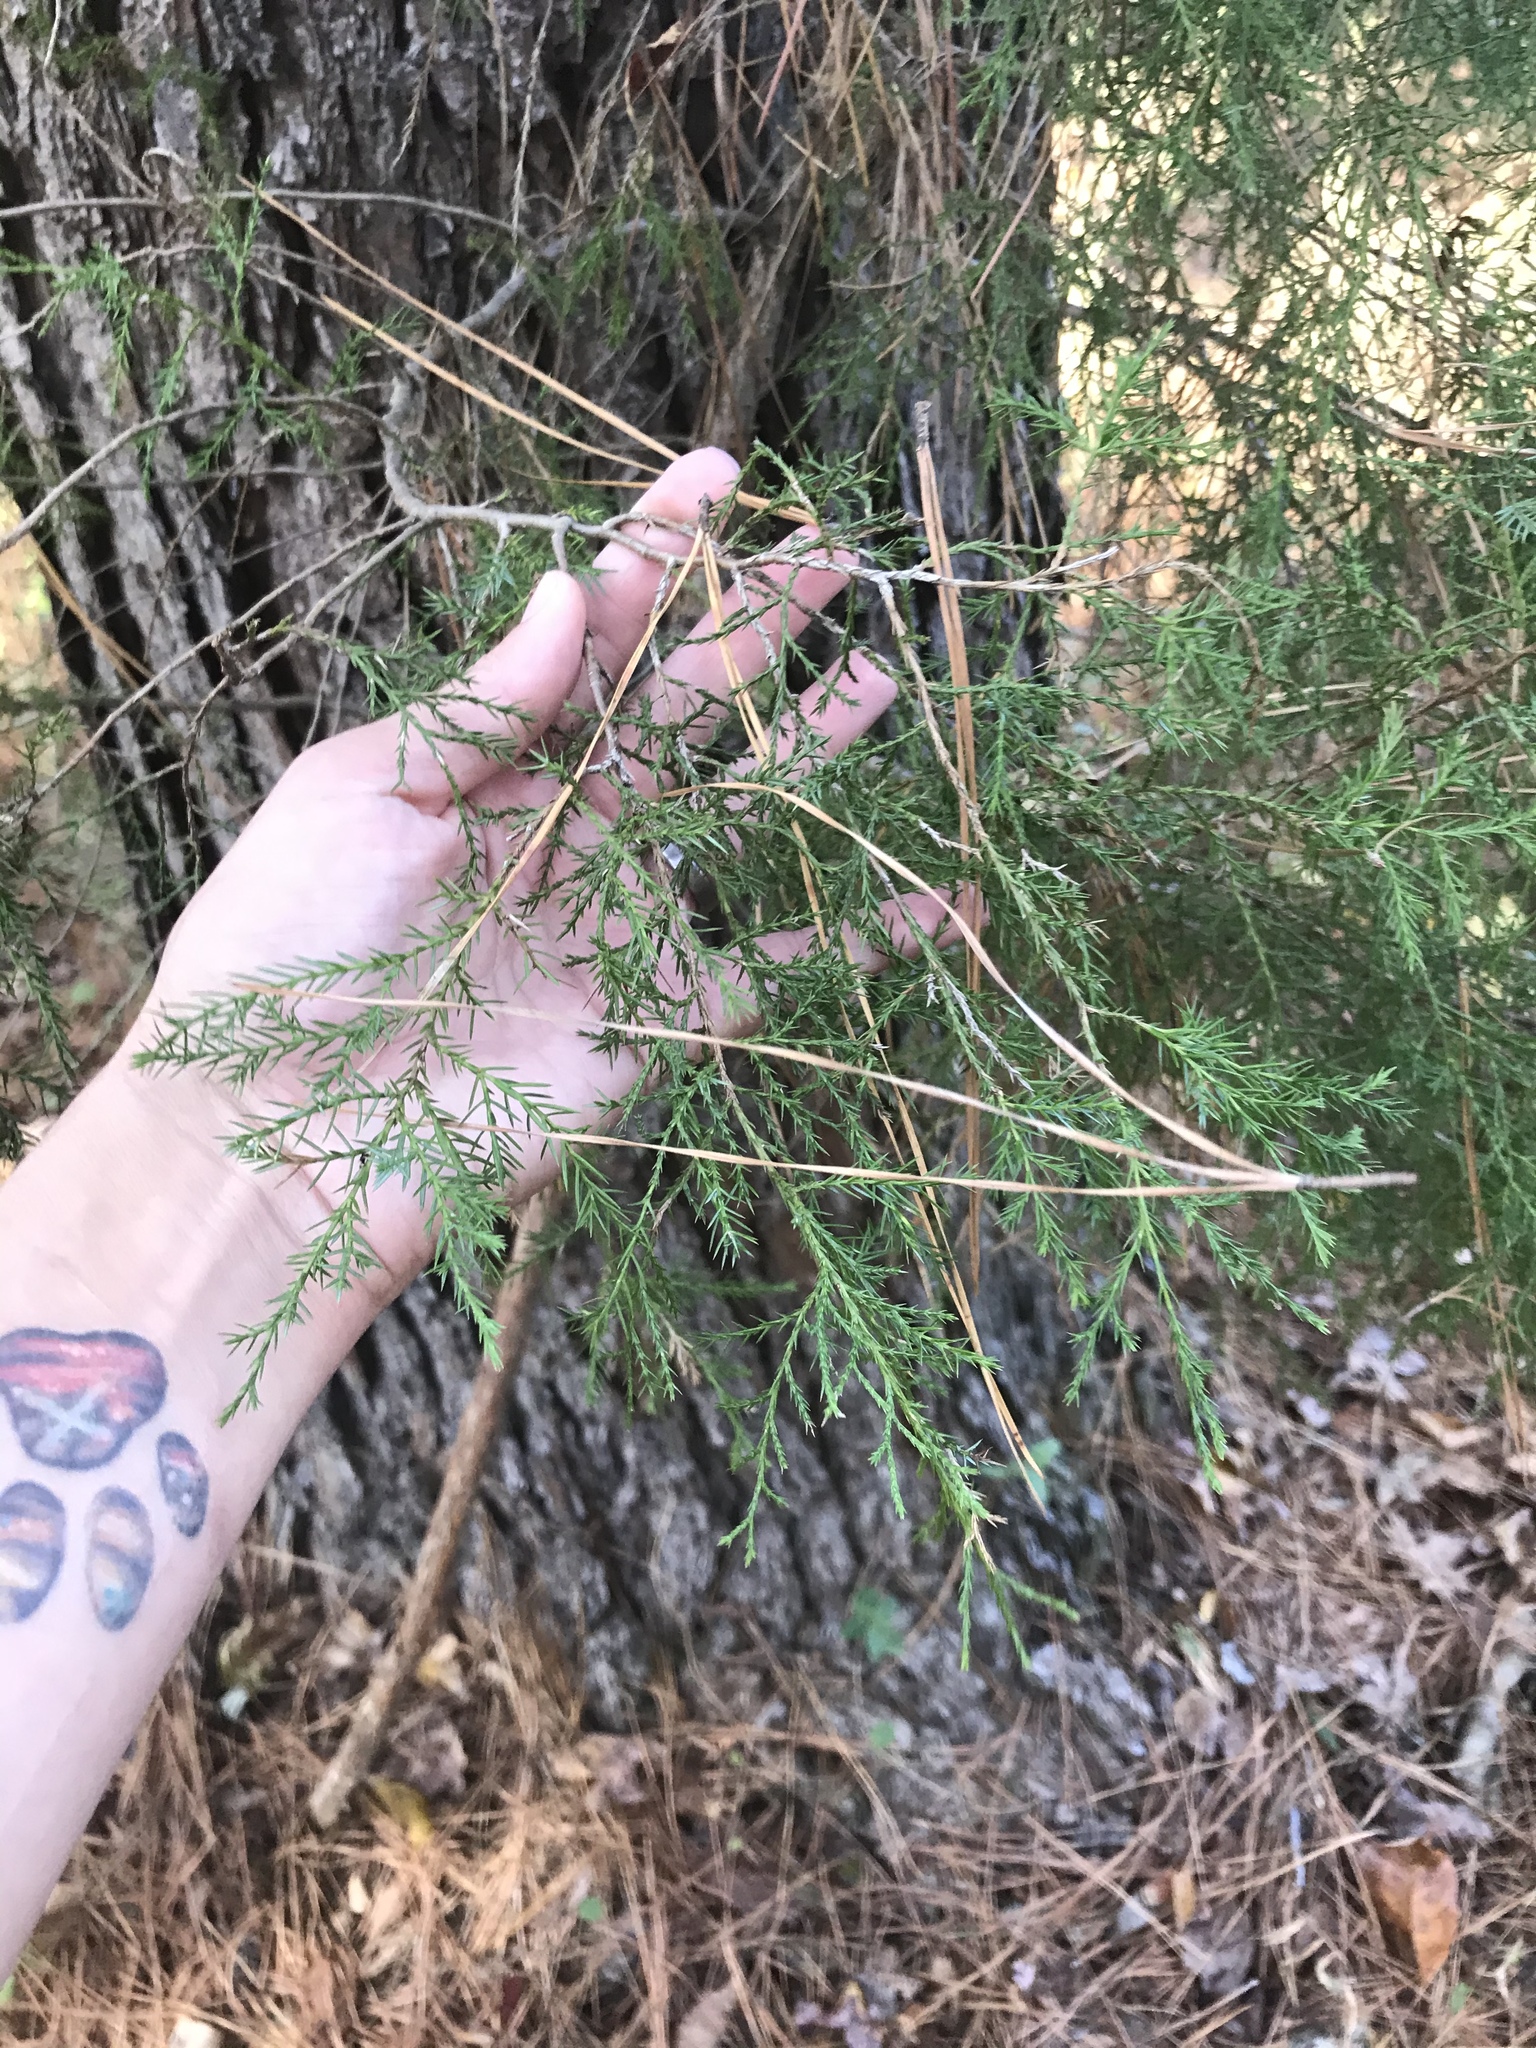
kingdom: Plantae
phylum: Tracheophyta
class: Pinopsida
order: Pinales
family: Cupressaceae
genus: Juniperus
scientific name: Juniperus virginiana
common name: Red juniper
